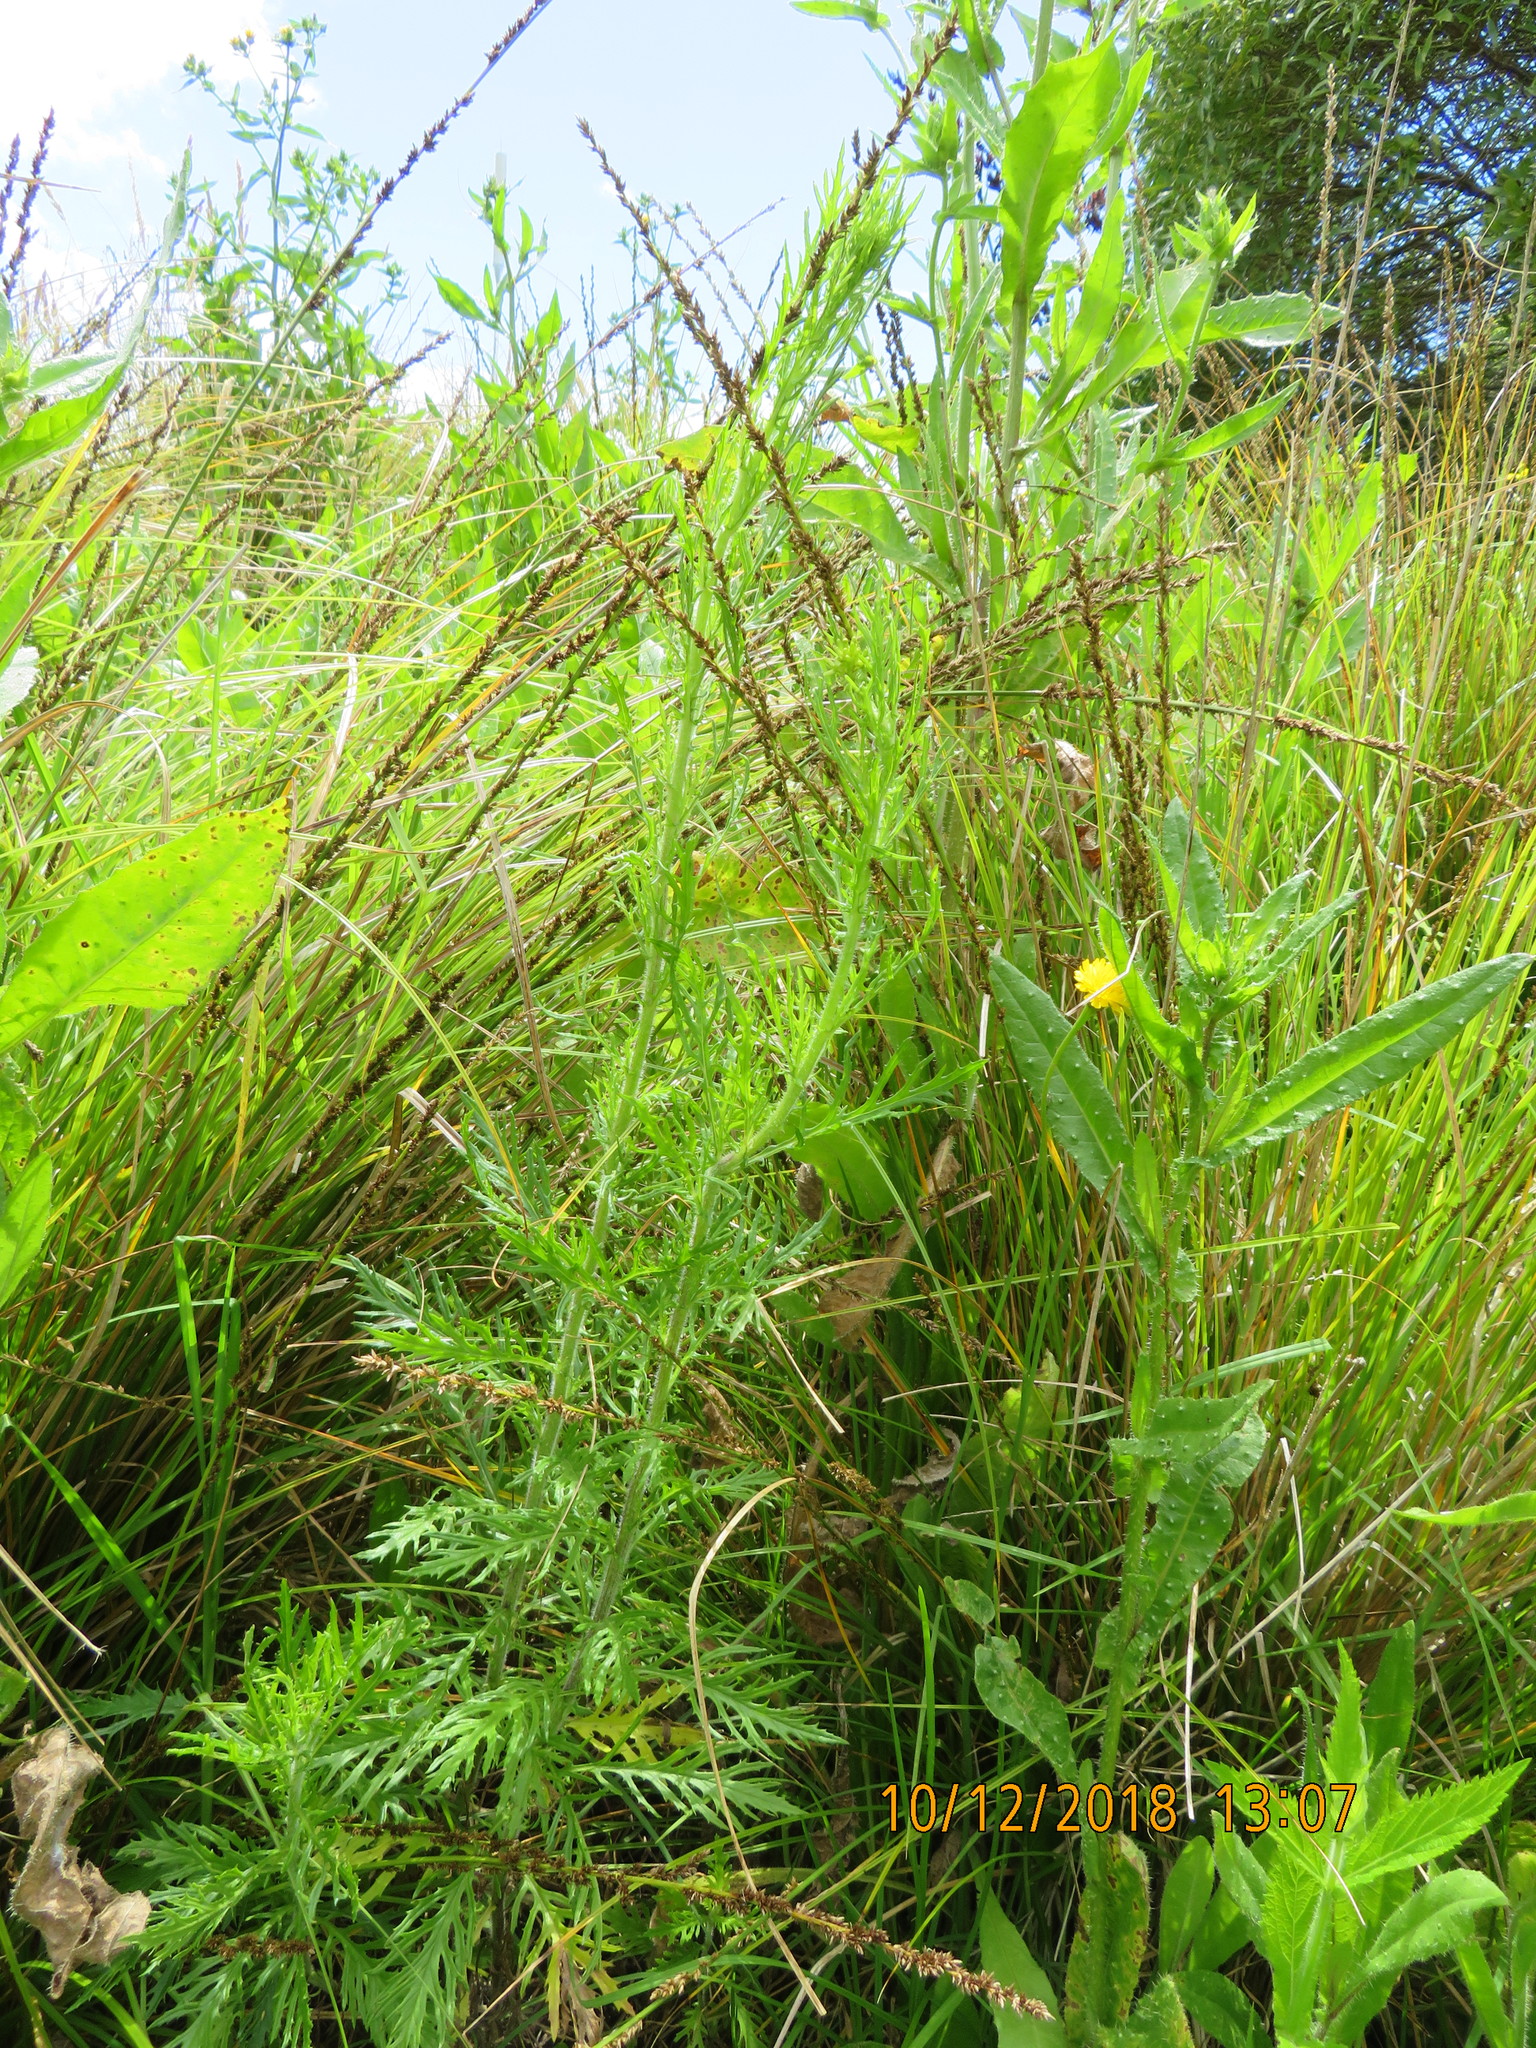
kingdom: Plantae
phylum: Tracheophyta
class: Magnoliopsida
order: Asterales
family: Asteraceae
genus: Senecio
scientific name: Senecio esleri
